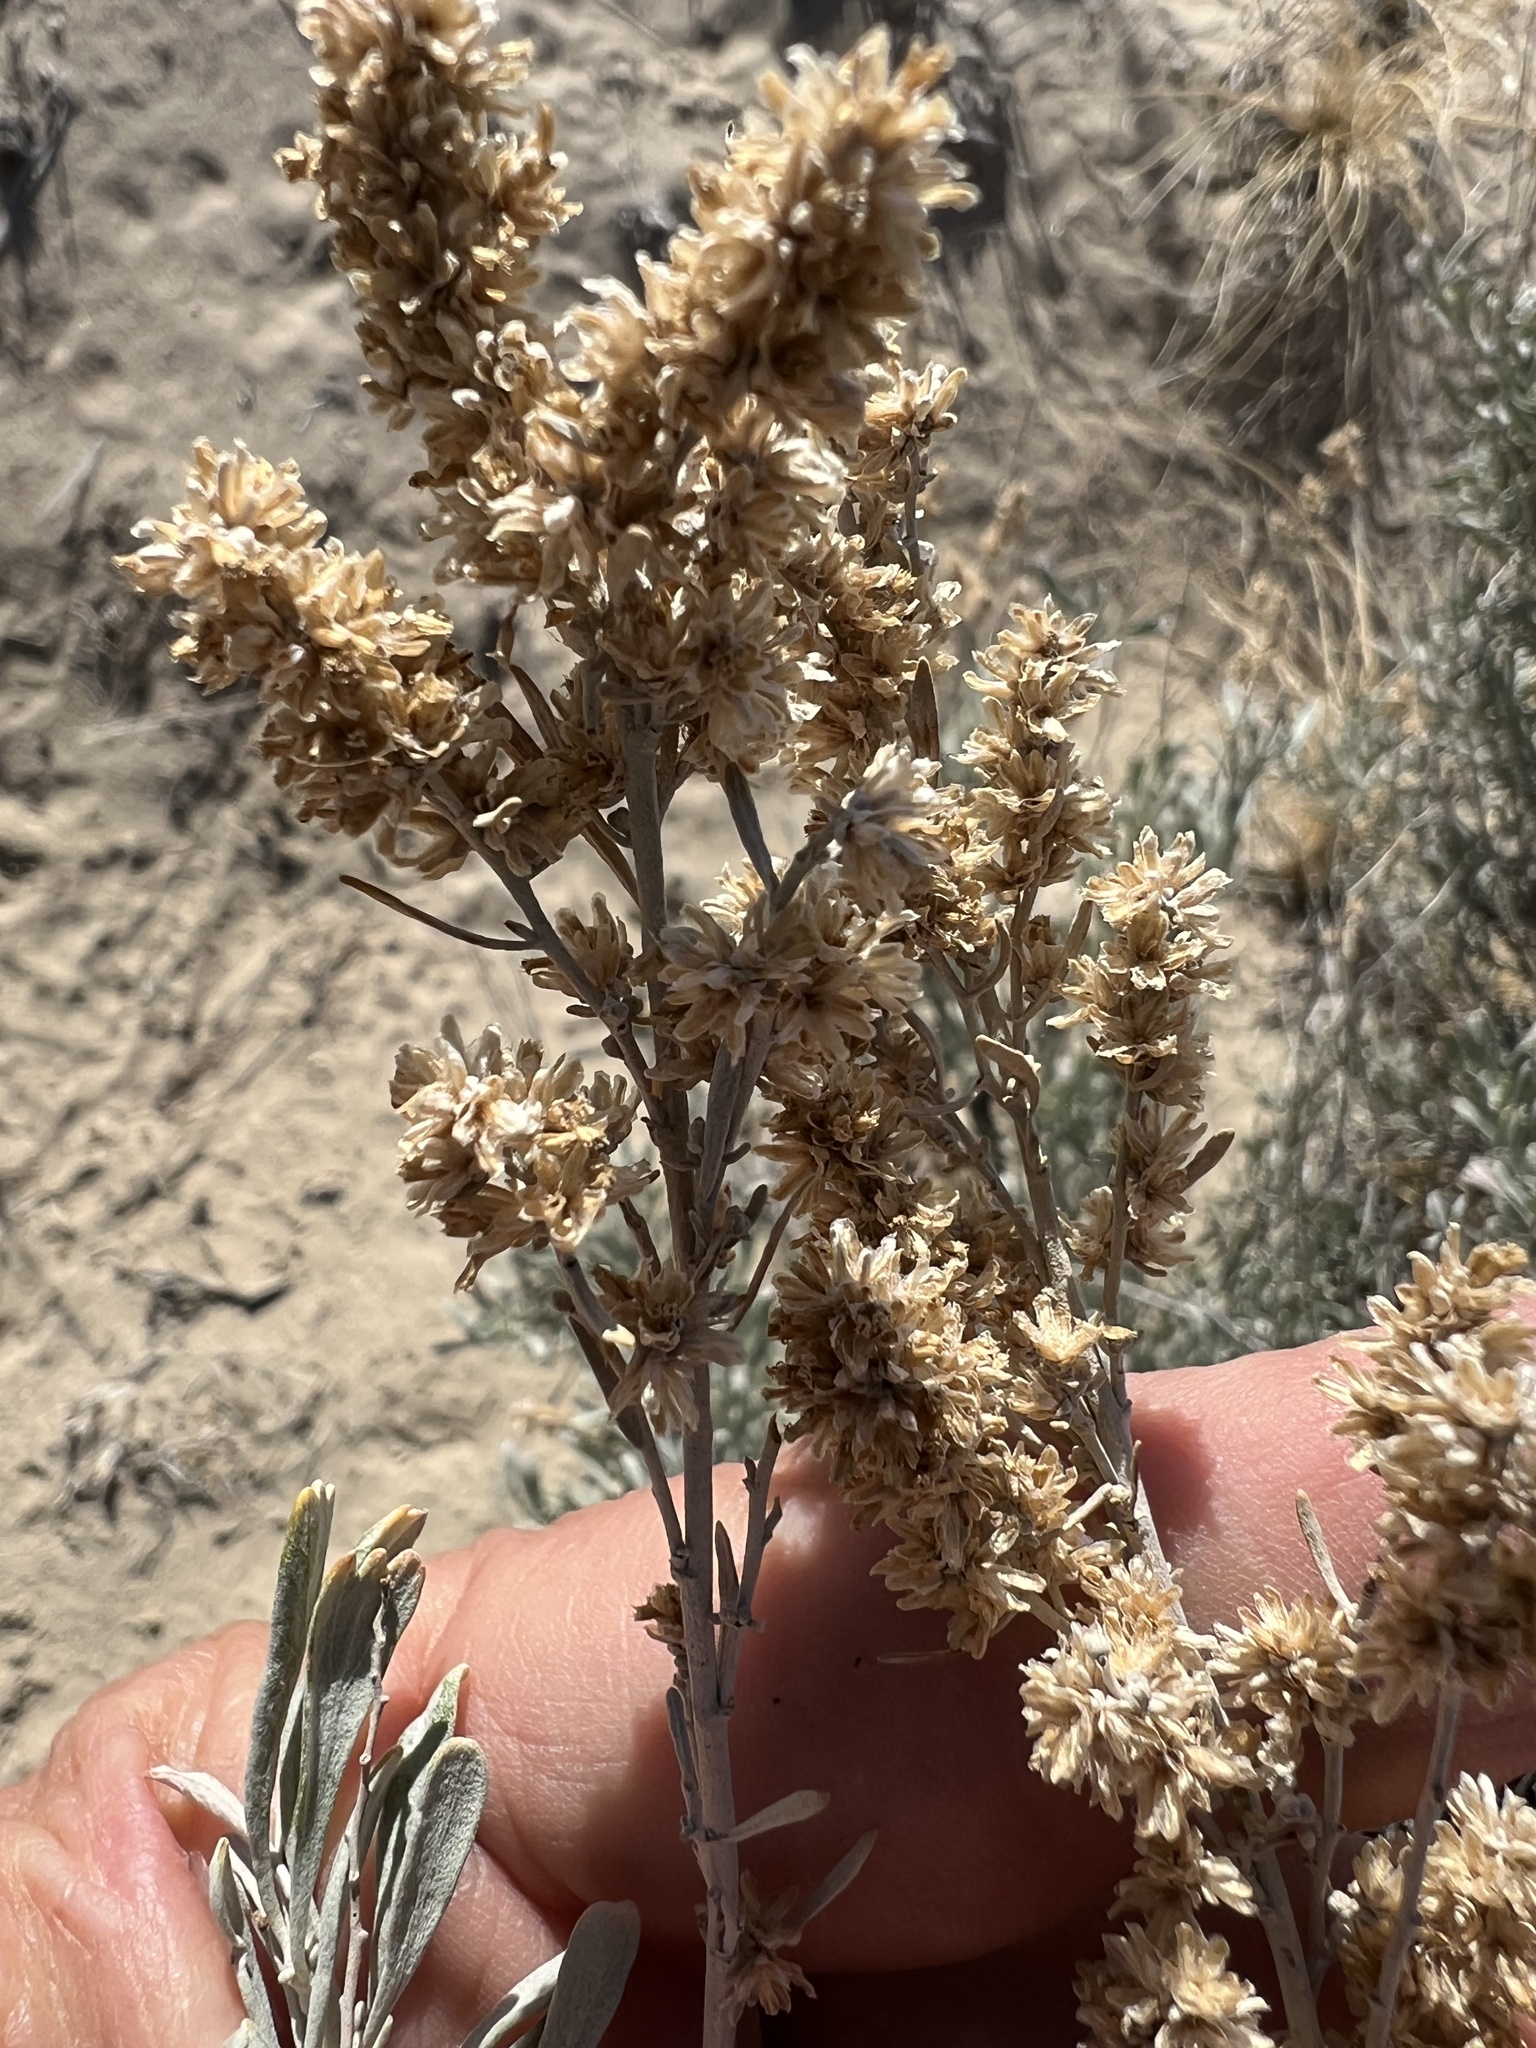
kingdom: Plantae
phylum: Tracheophyta
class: Magnoliopsida
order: Asterales
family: Asteraceae
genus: Artemisia
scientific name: Artemisia tridentata
